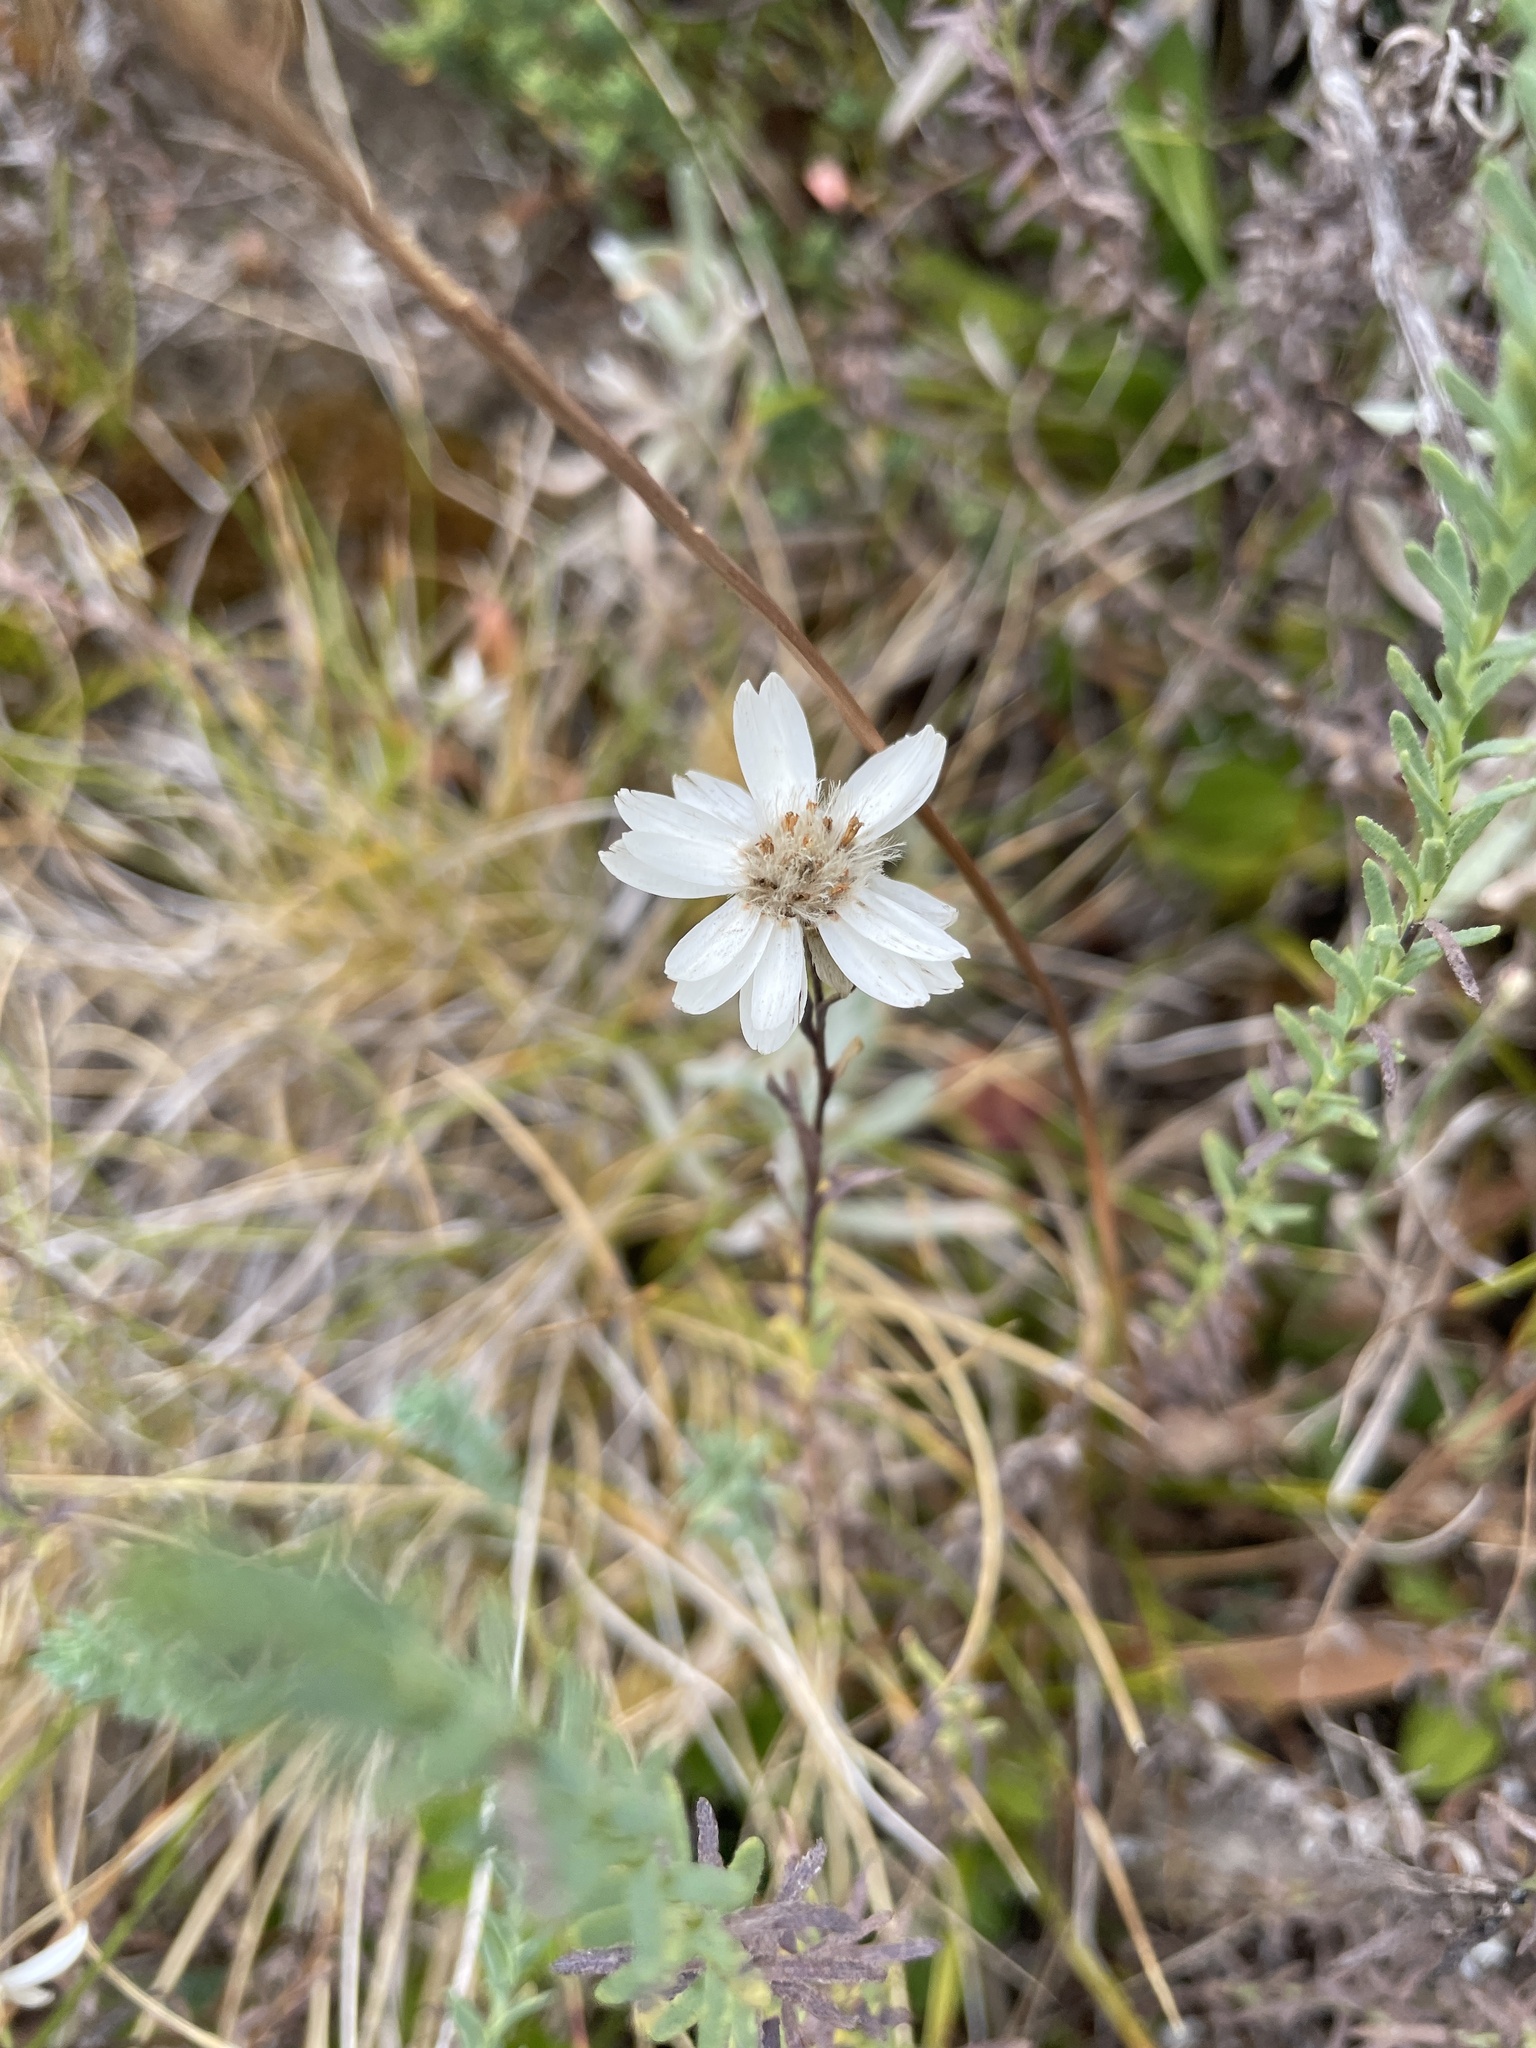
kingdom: Plantae
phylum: Tracheophyta
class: Magnoliopsida
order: Asterales
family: Asteraceae
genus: Rhodanthe
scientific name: Rhodanthe anthemoides
